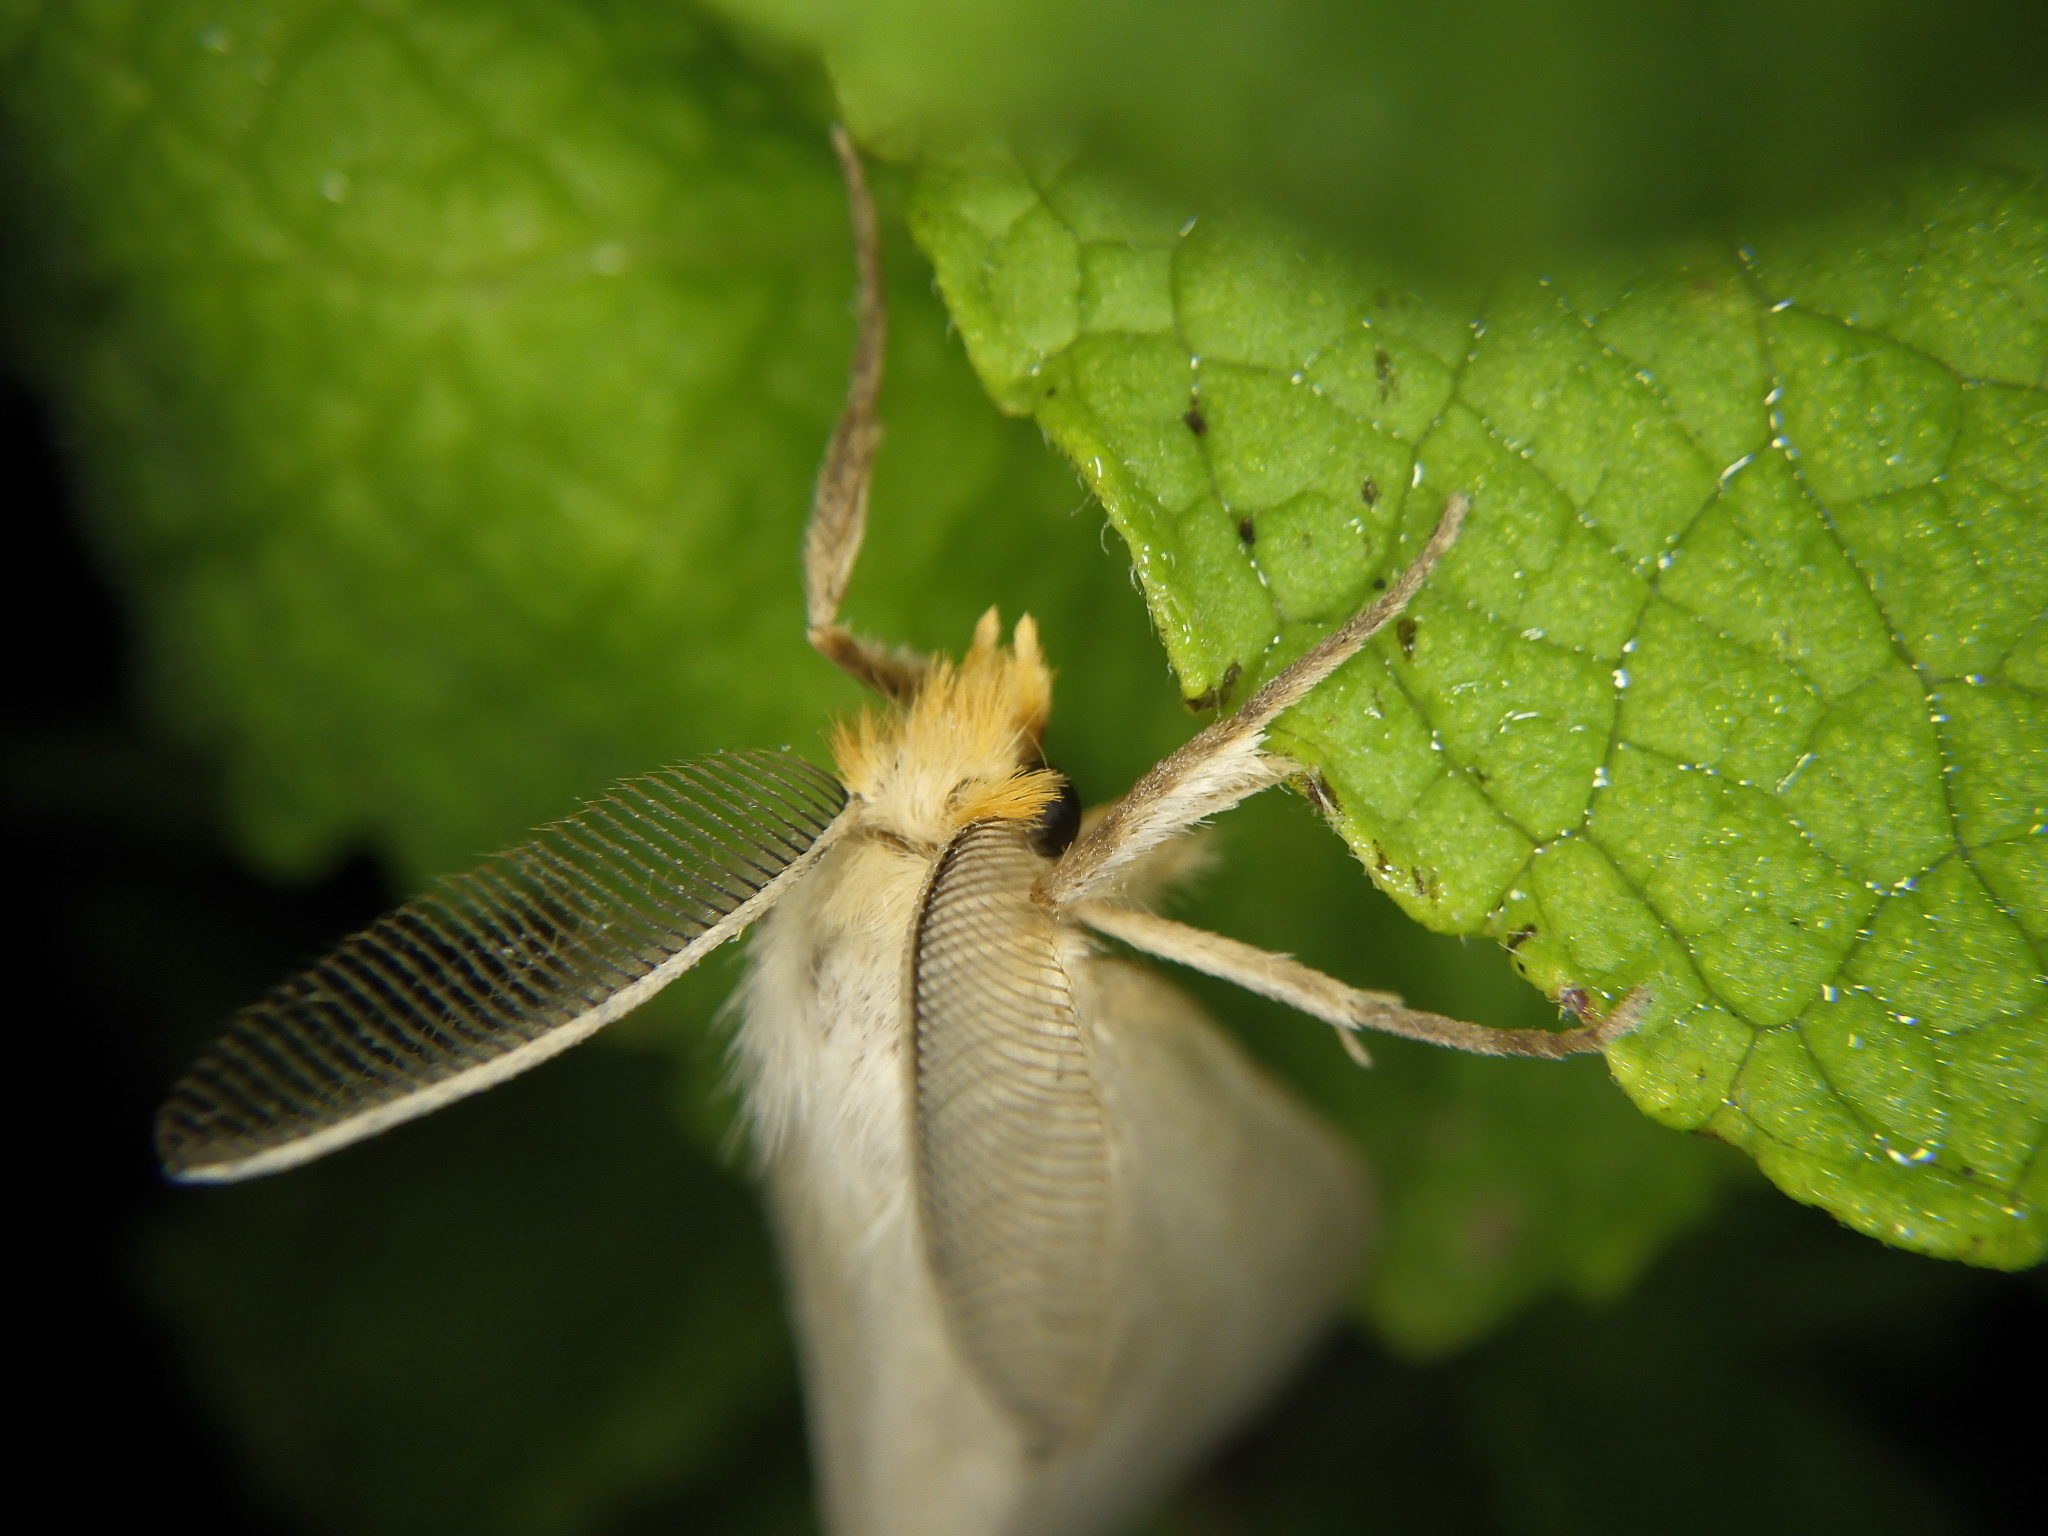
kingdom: Animalia
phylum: Arthropoda
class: Insecta
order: Lepidoptera
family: Erebidae
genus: Laelia
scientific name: Laelia gigantea
